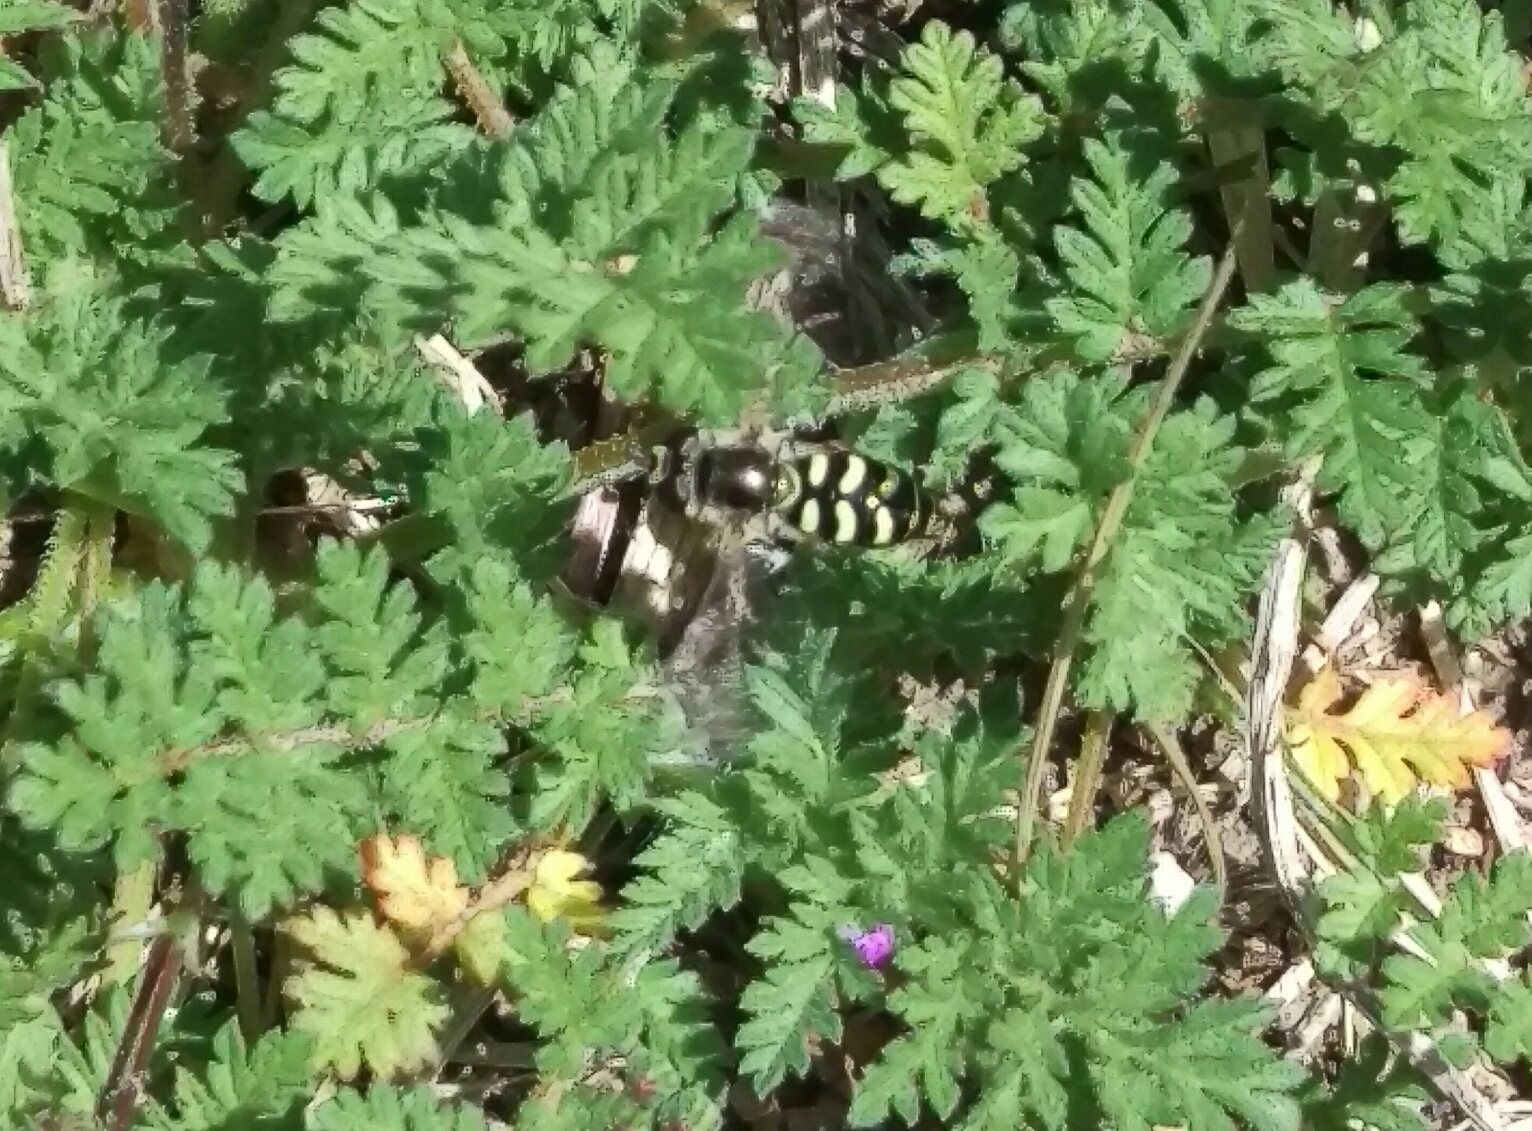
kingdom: Animalia
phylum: Arthropoda
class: Insecta
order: Diptera
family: Syrphidae
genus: Eupeodes
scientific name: Eupeodes volucris
